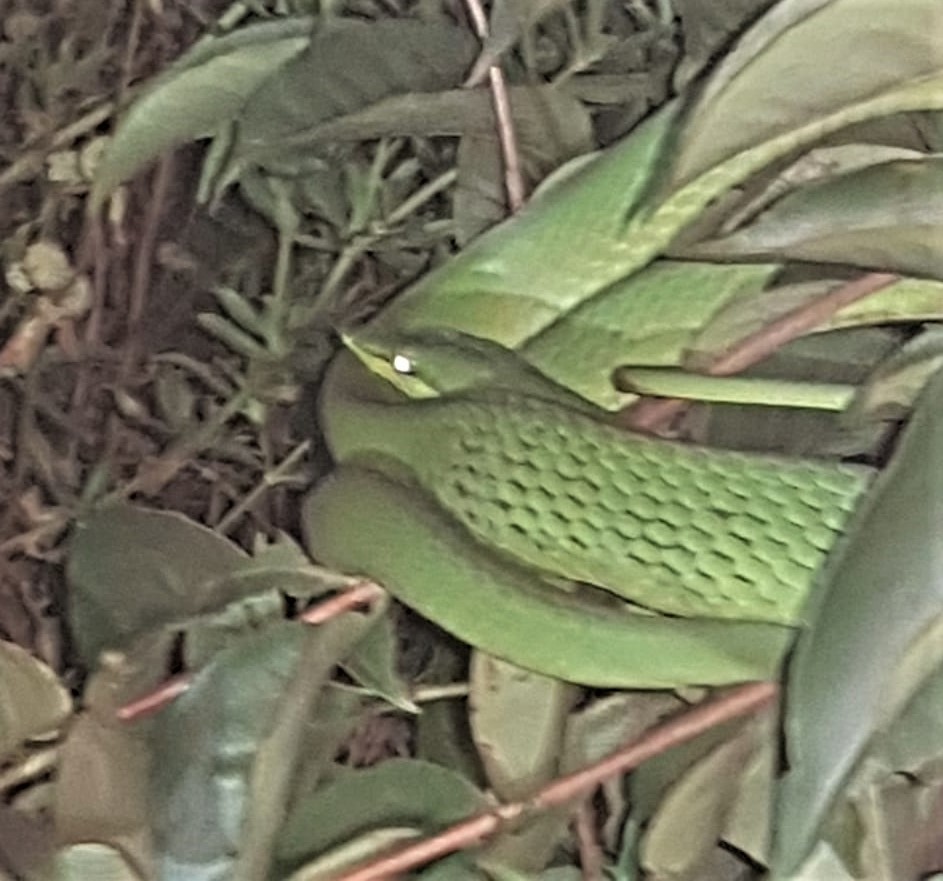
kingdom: Animalia
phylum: Chordata
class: Squamata
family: Colubridae
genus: Oxybelis
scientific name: Oxybelis fulgidus
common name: Green vine snake
